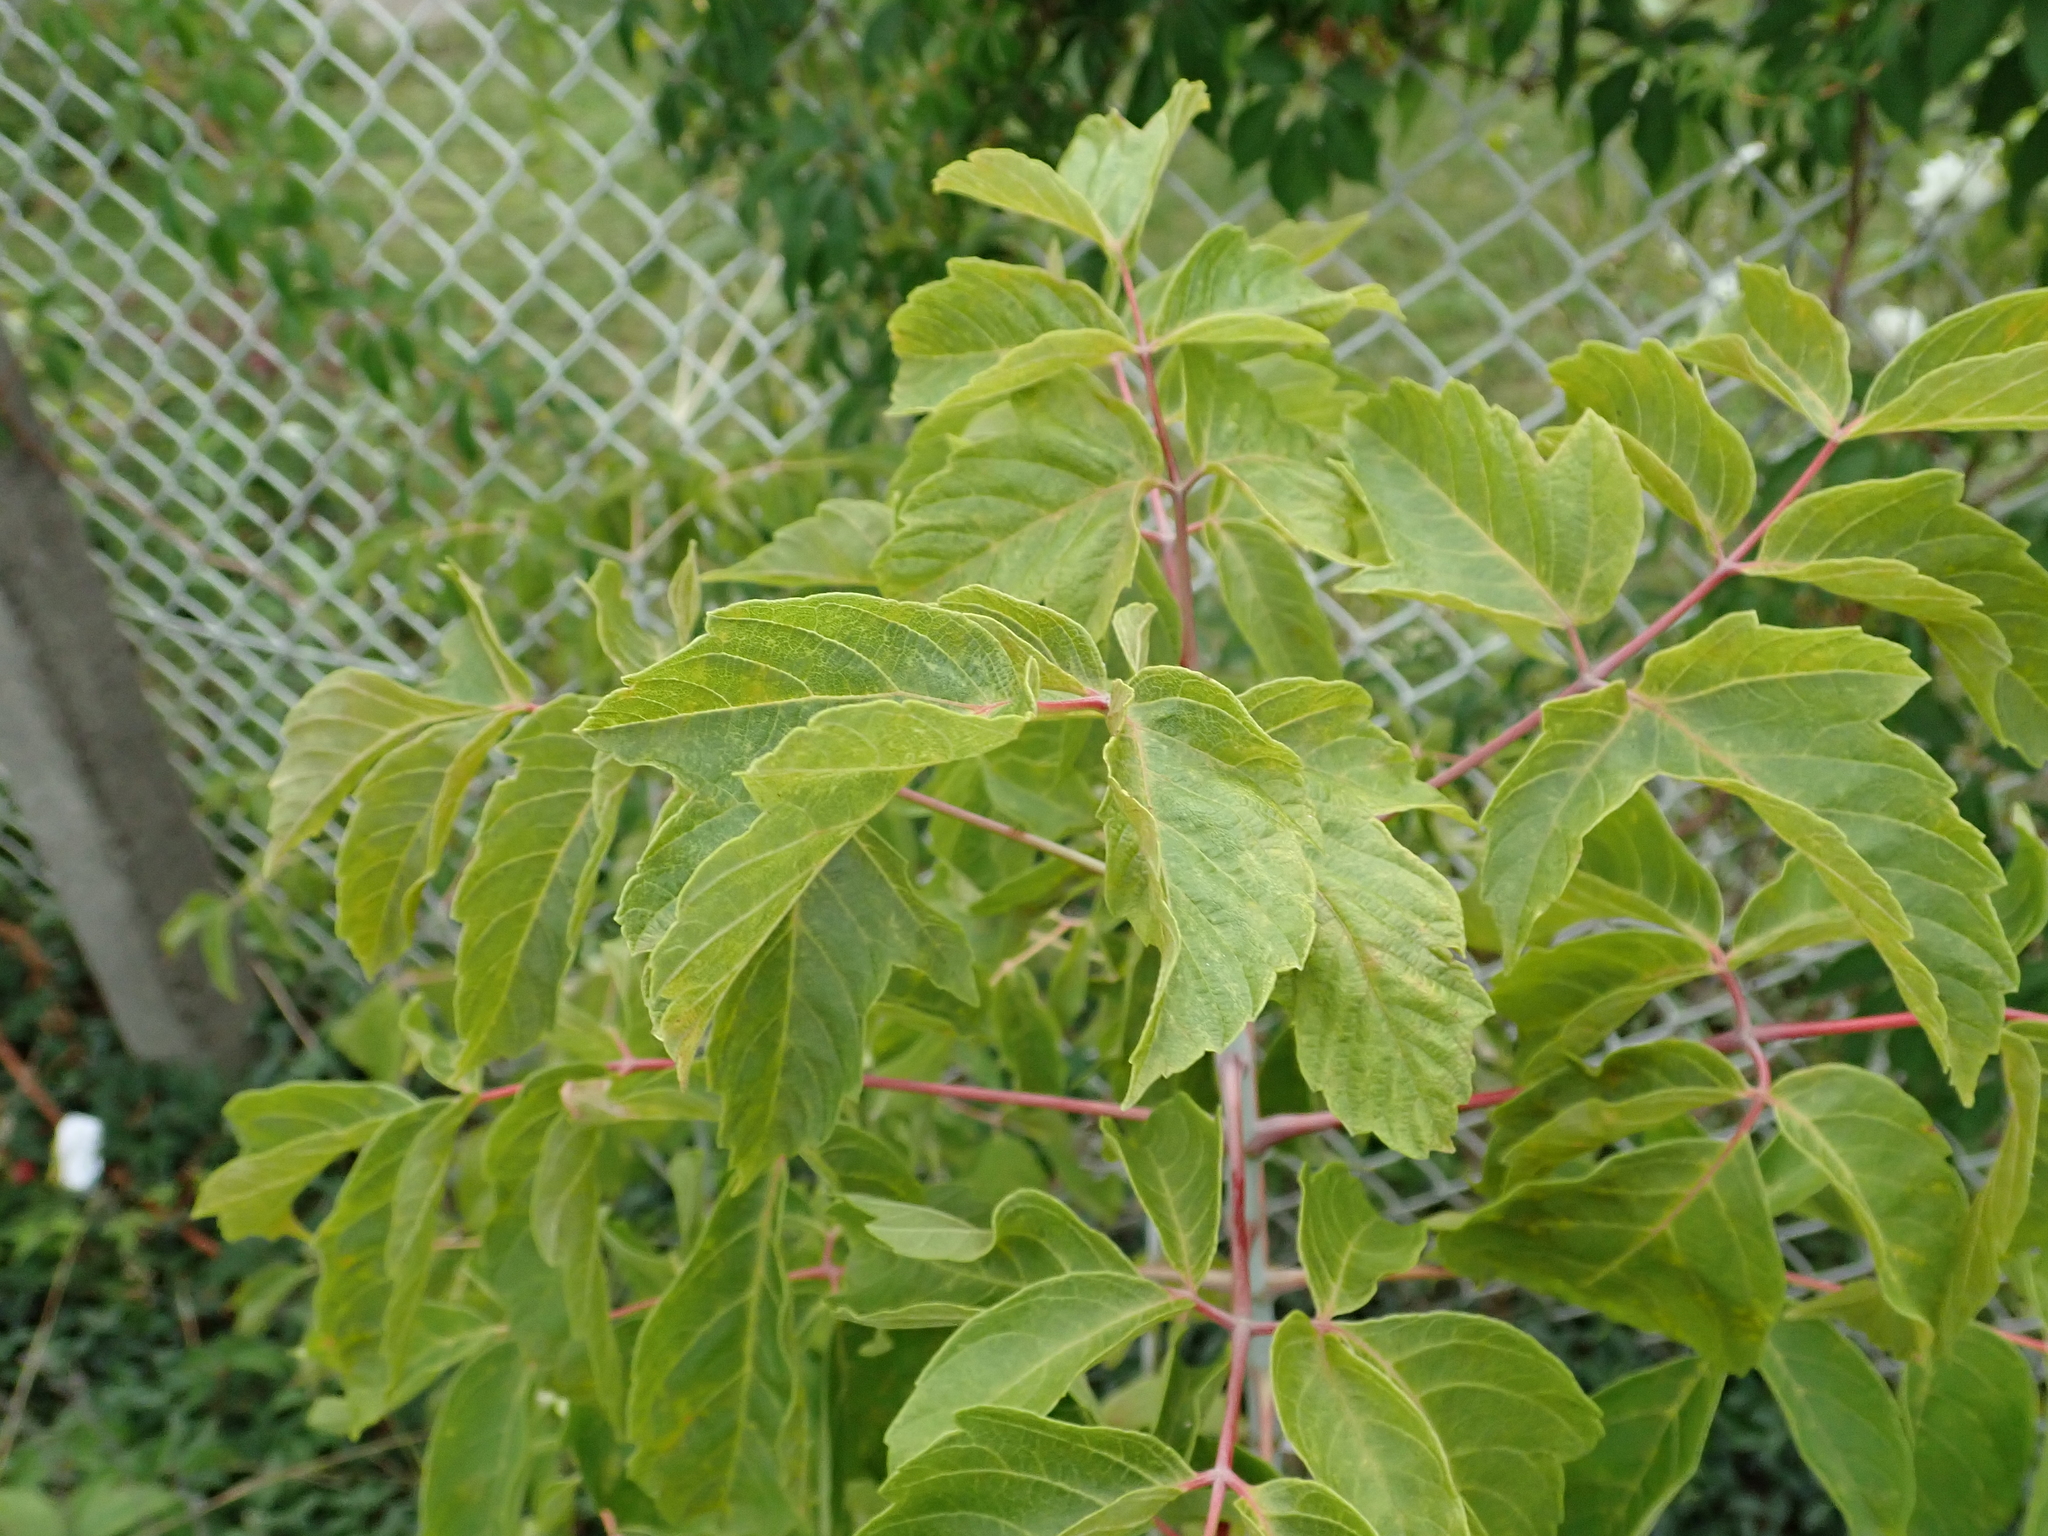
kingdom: Plantae
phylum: Tracheophyta
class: Magnoliopsida
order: Sapindales
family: Sapindaceae
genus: Acer
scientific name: Acer negundo
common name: Ashleaf maple
